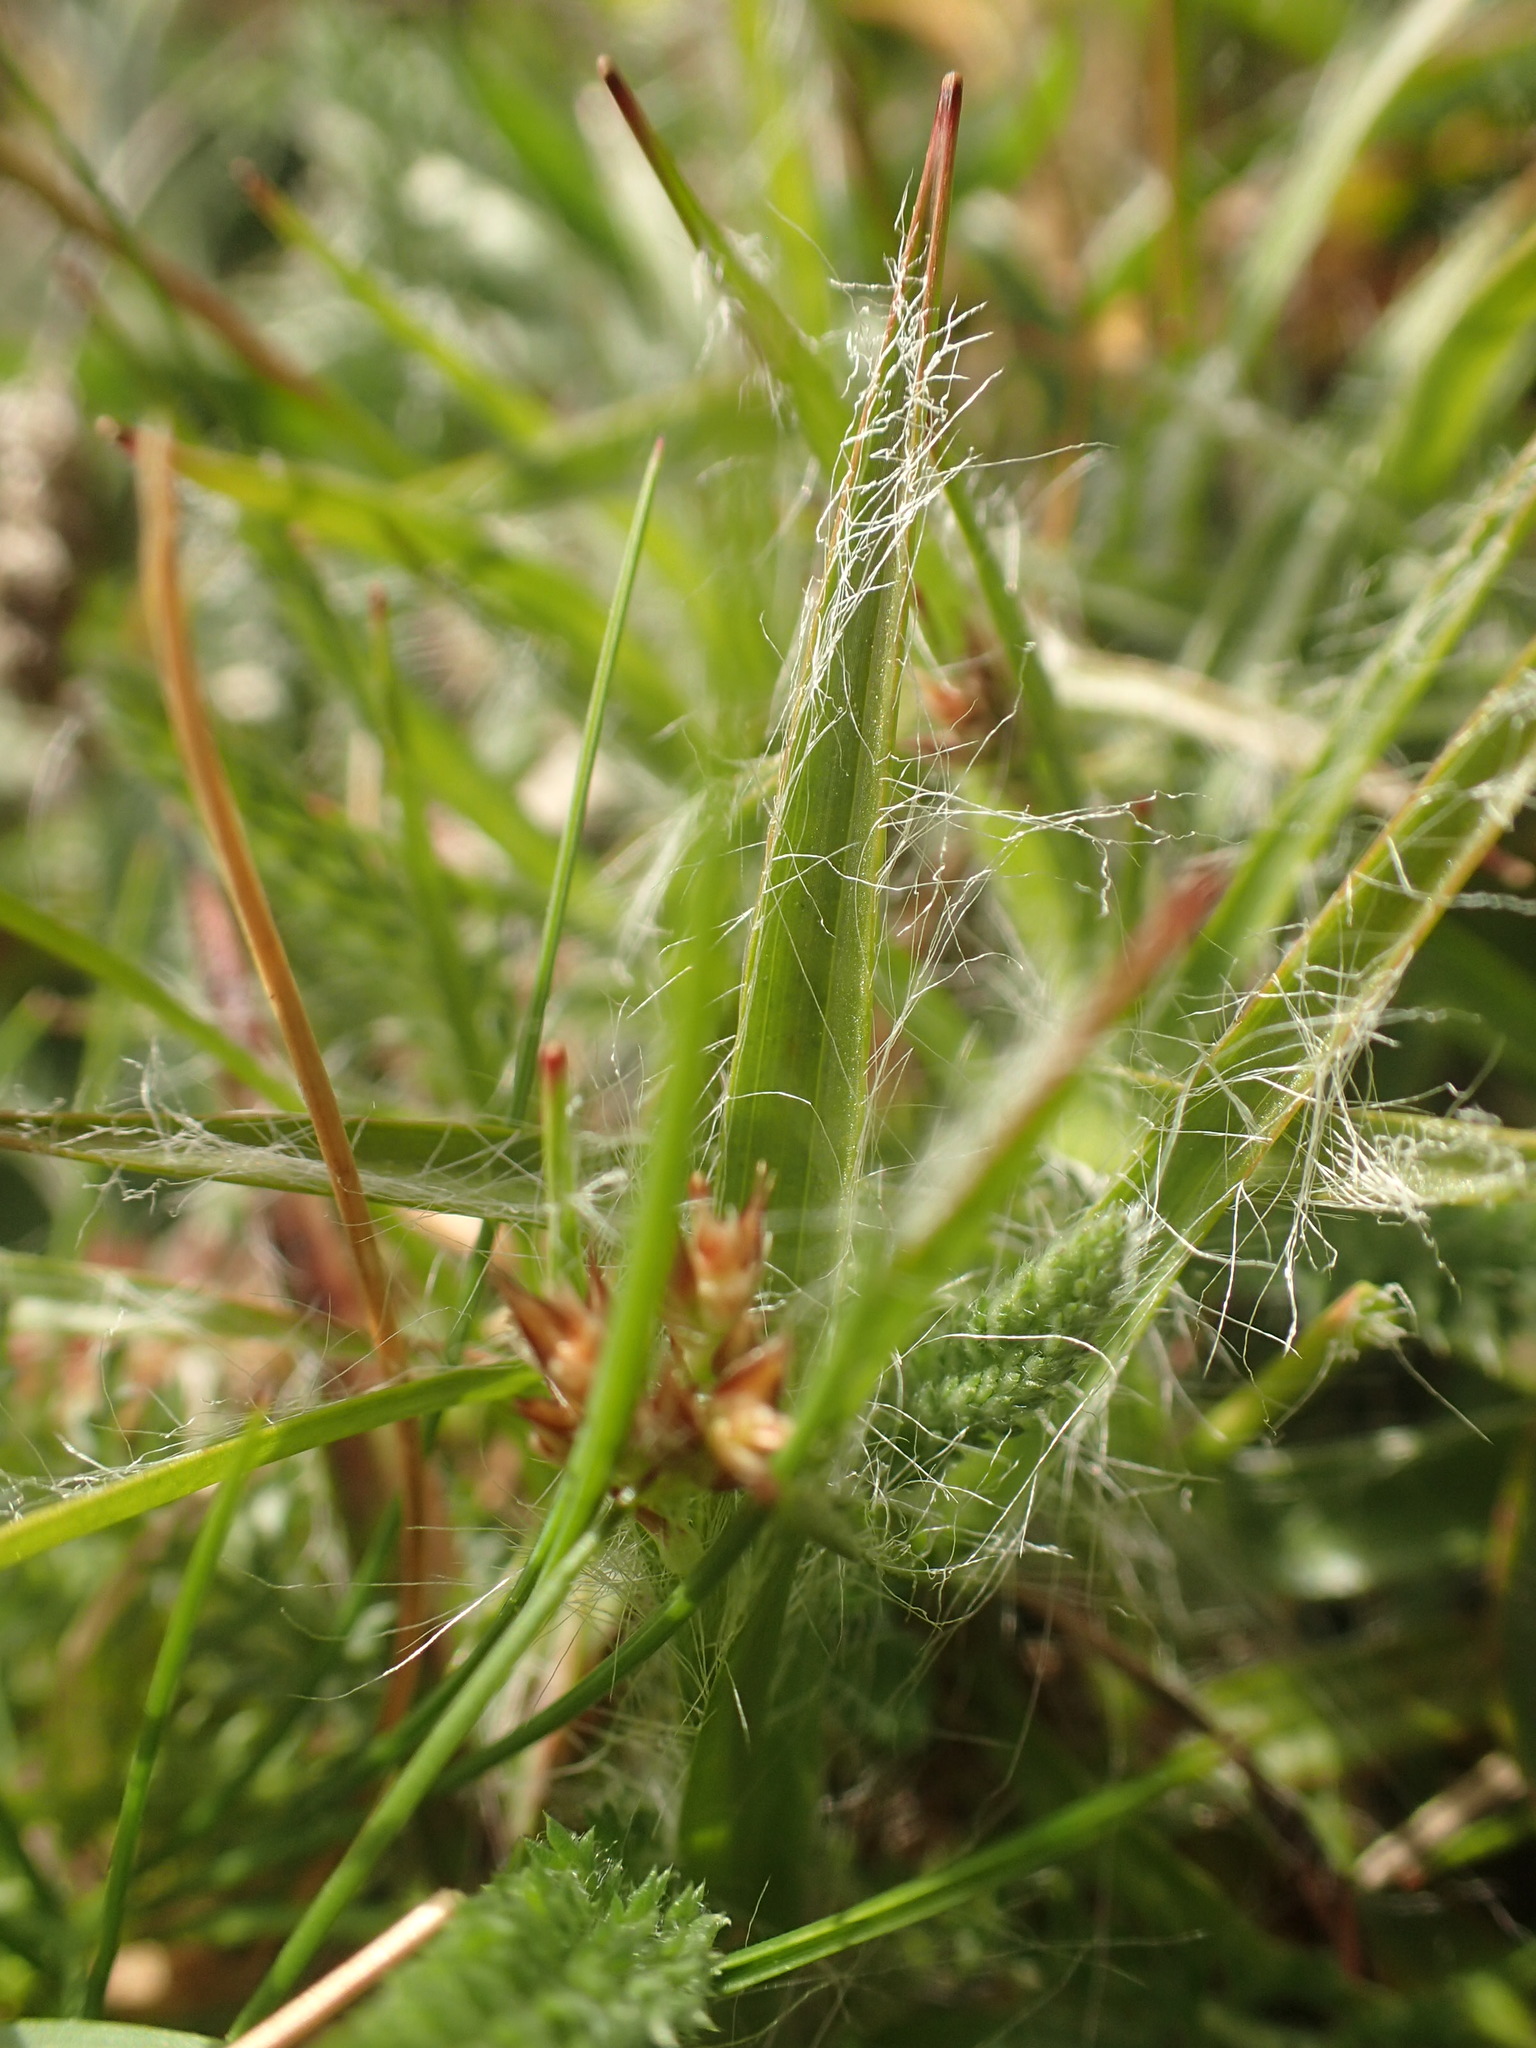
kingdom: Plantae
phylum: Tracheophyta
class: Liliopsida
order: Poales
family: Juncaceae
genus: Luzula
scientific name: Luzula campestris
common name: Field wood-rush
